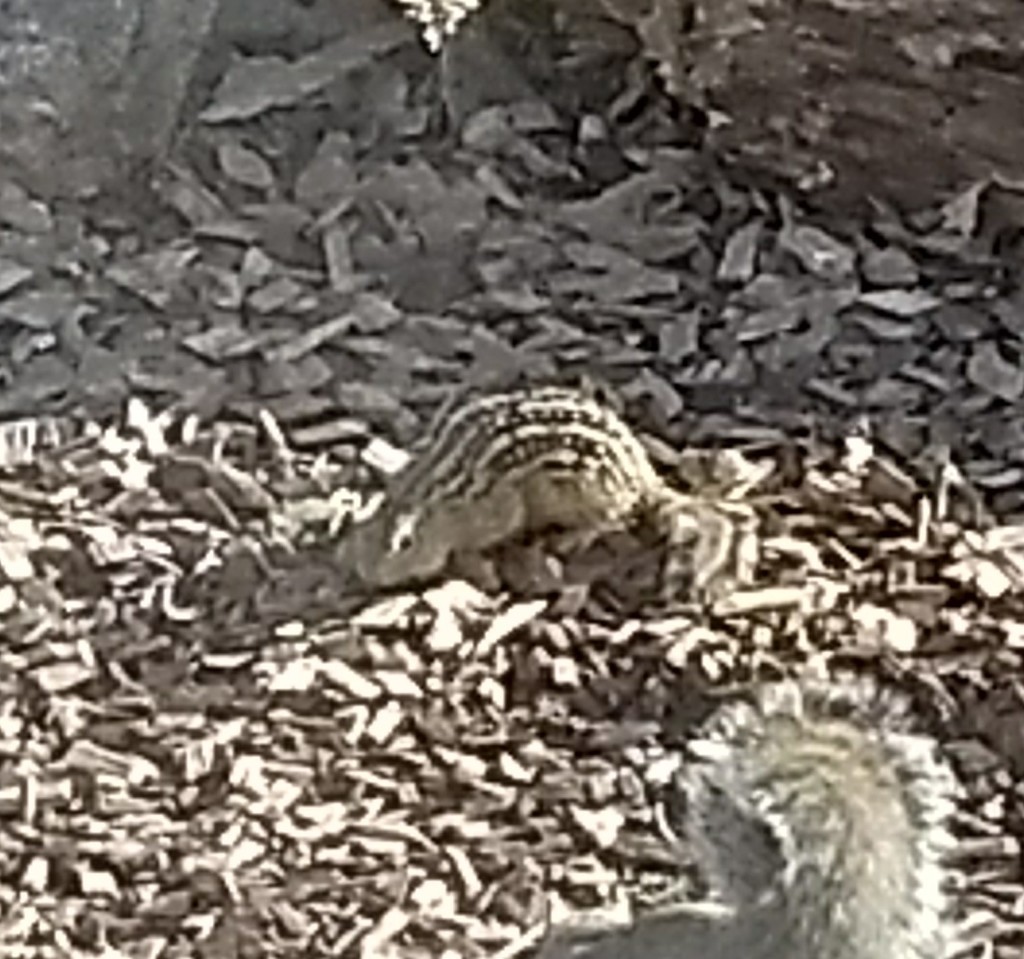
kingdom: Animalia
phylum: Chordata
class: Mammalia
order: Rodentia
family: Sciuridae
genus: Ictidomys
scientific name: Ictidomys tridecemlineatus
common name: Thirteen-lined ground squirrel
